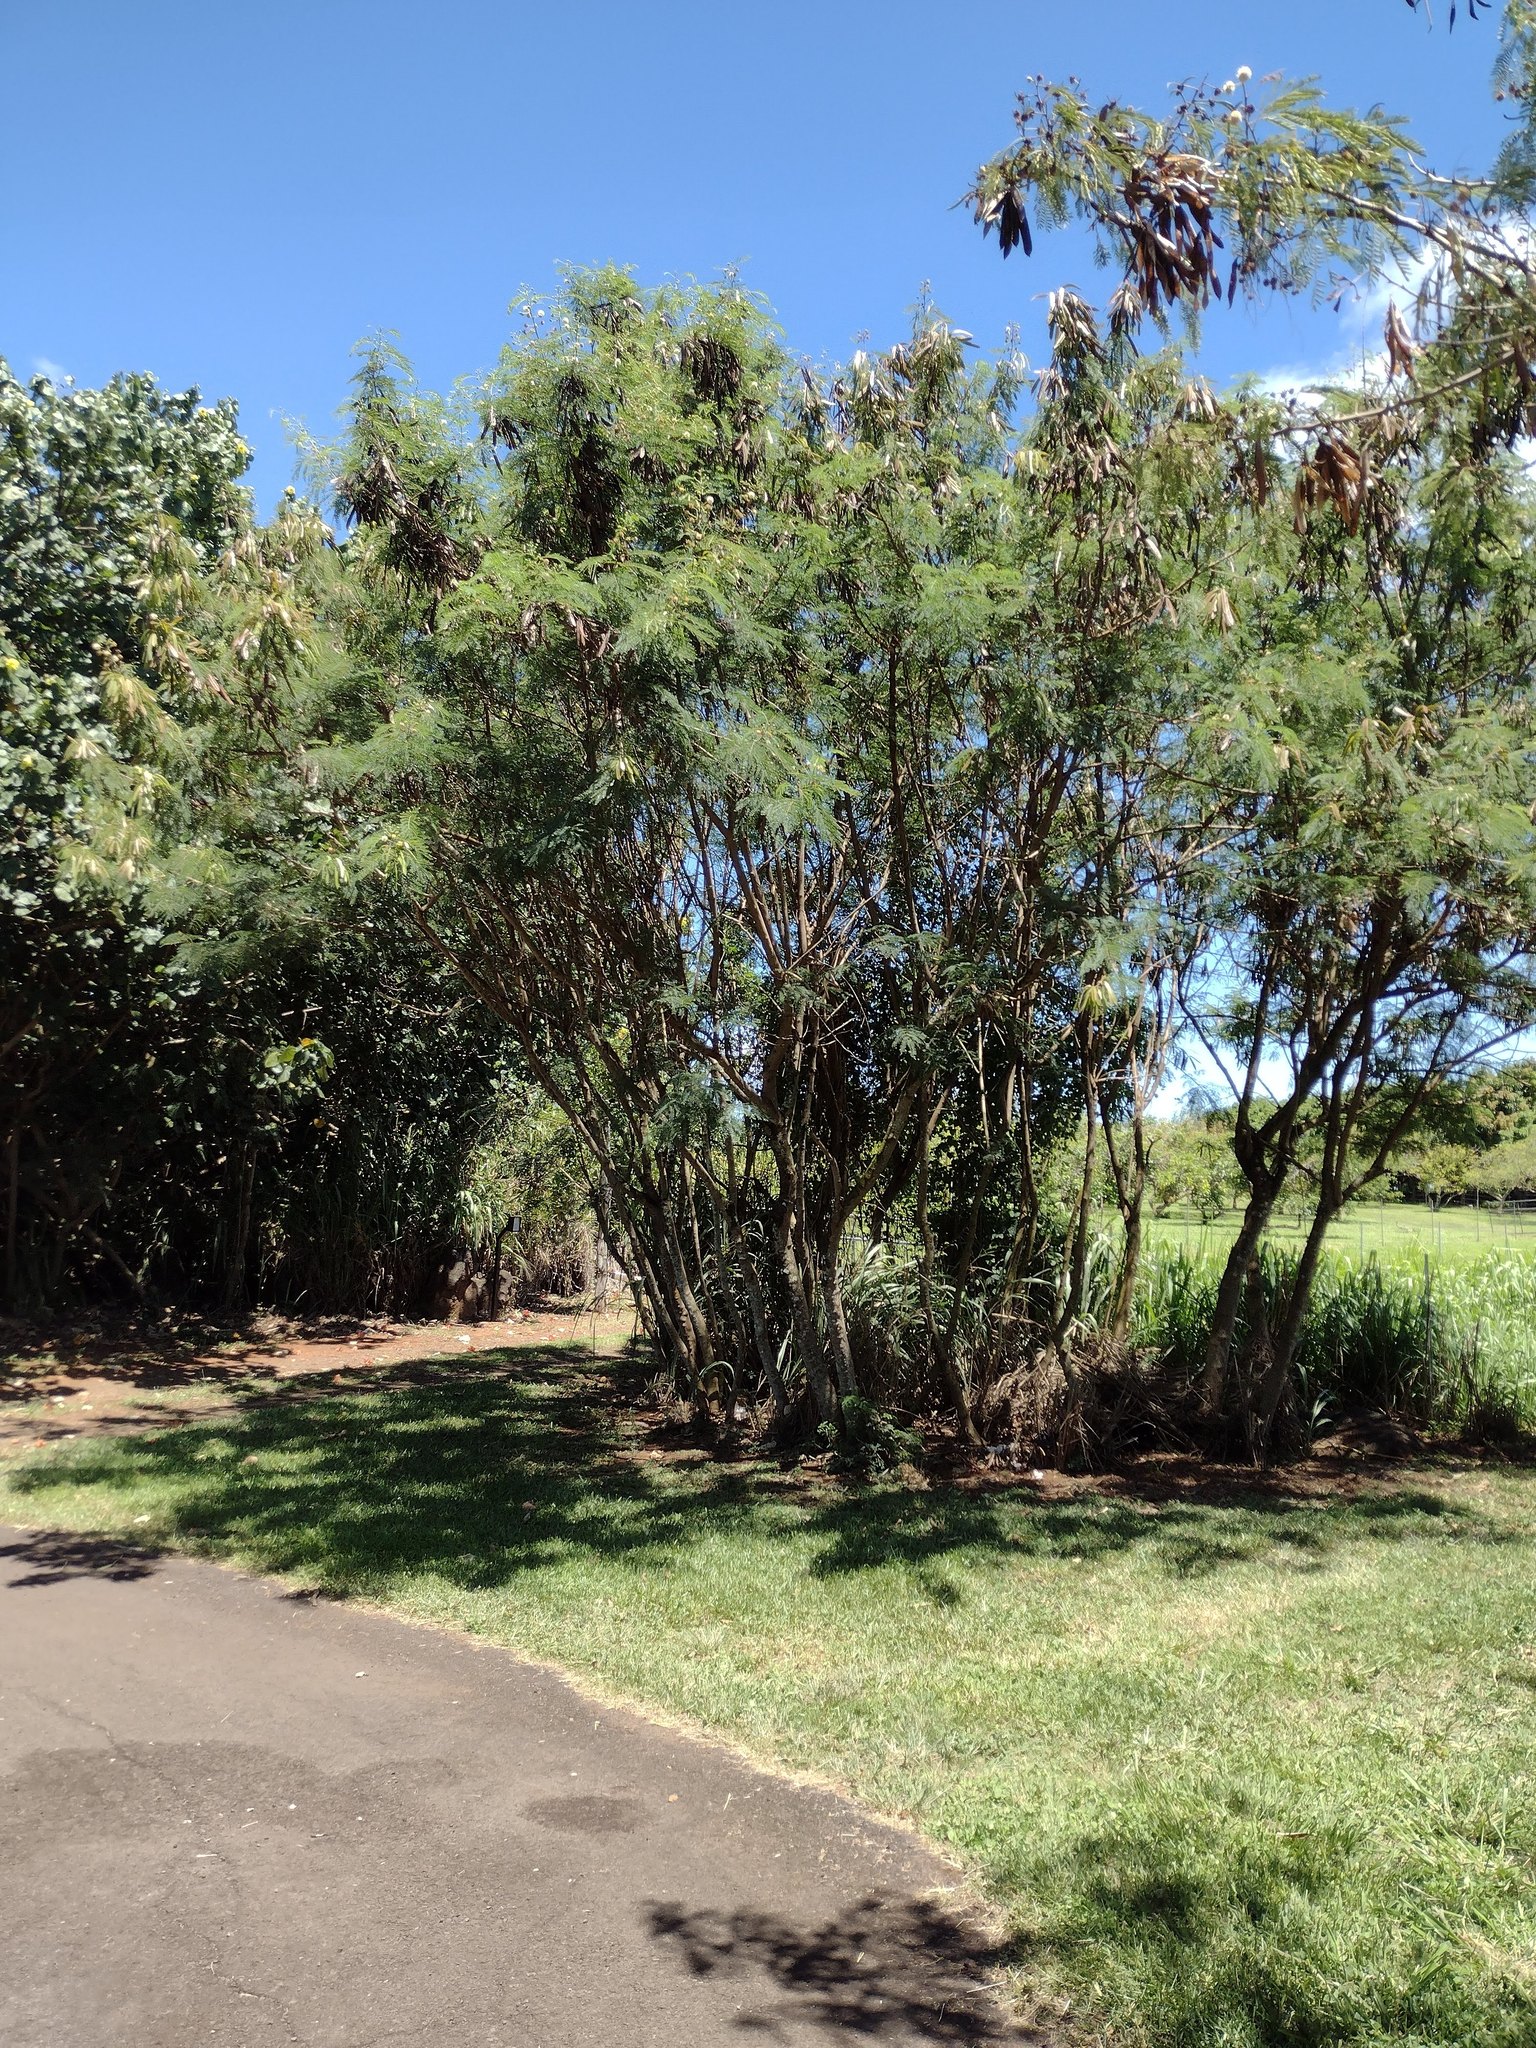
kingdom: Plantae
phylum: Tracheophyta
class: Magnoliopsida
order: Fabales
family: Fabaceae
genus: Leucaena
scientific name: Leucaena leucocephala
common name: White leadtree
